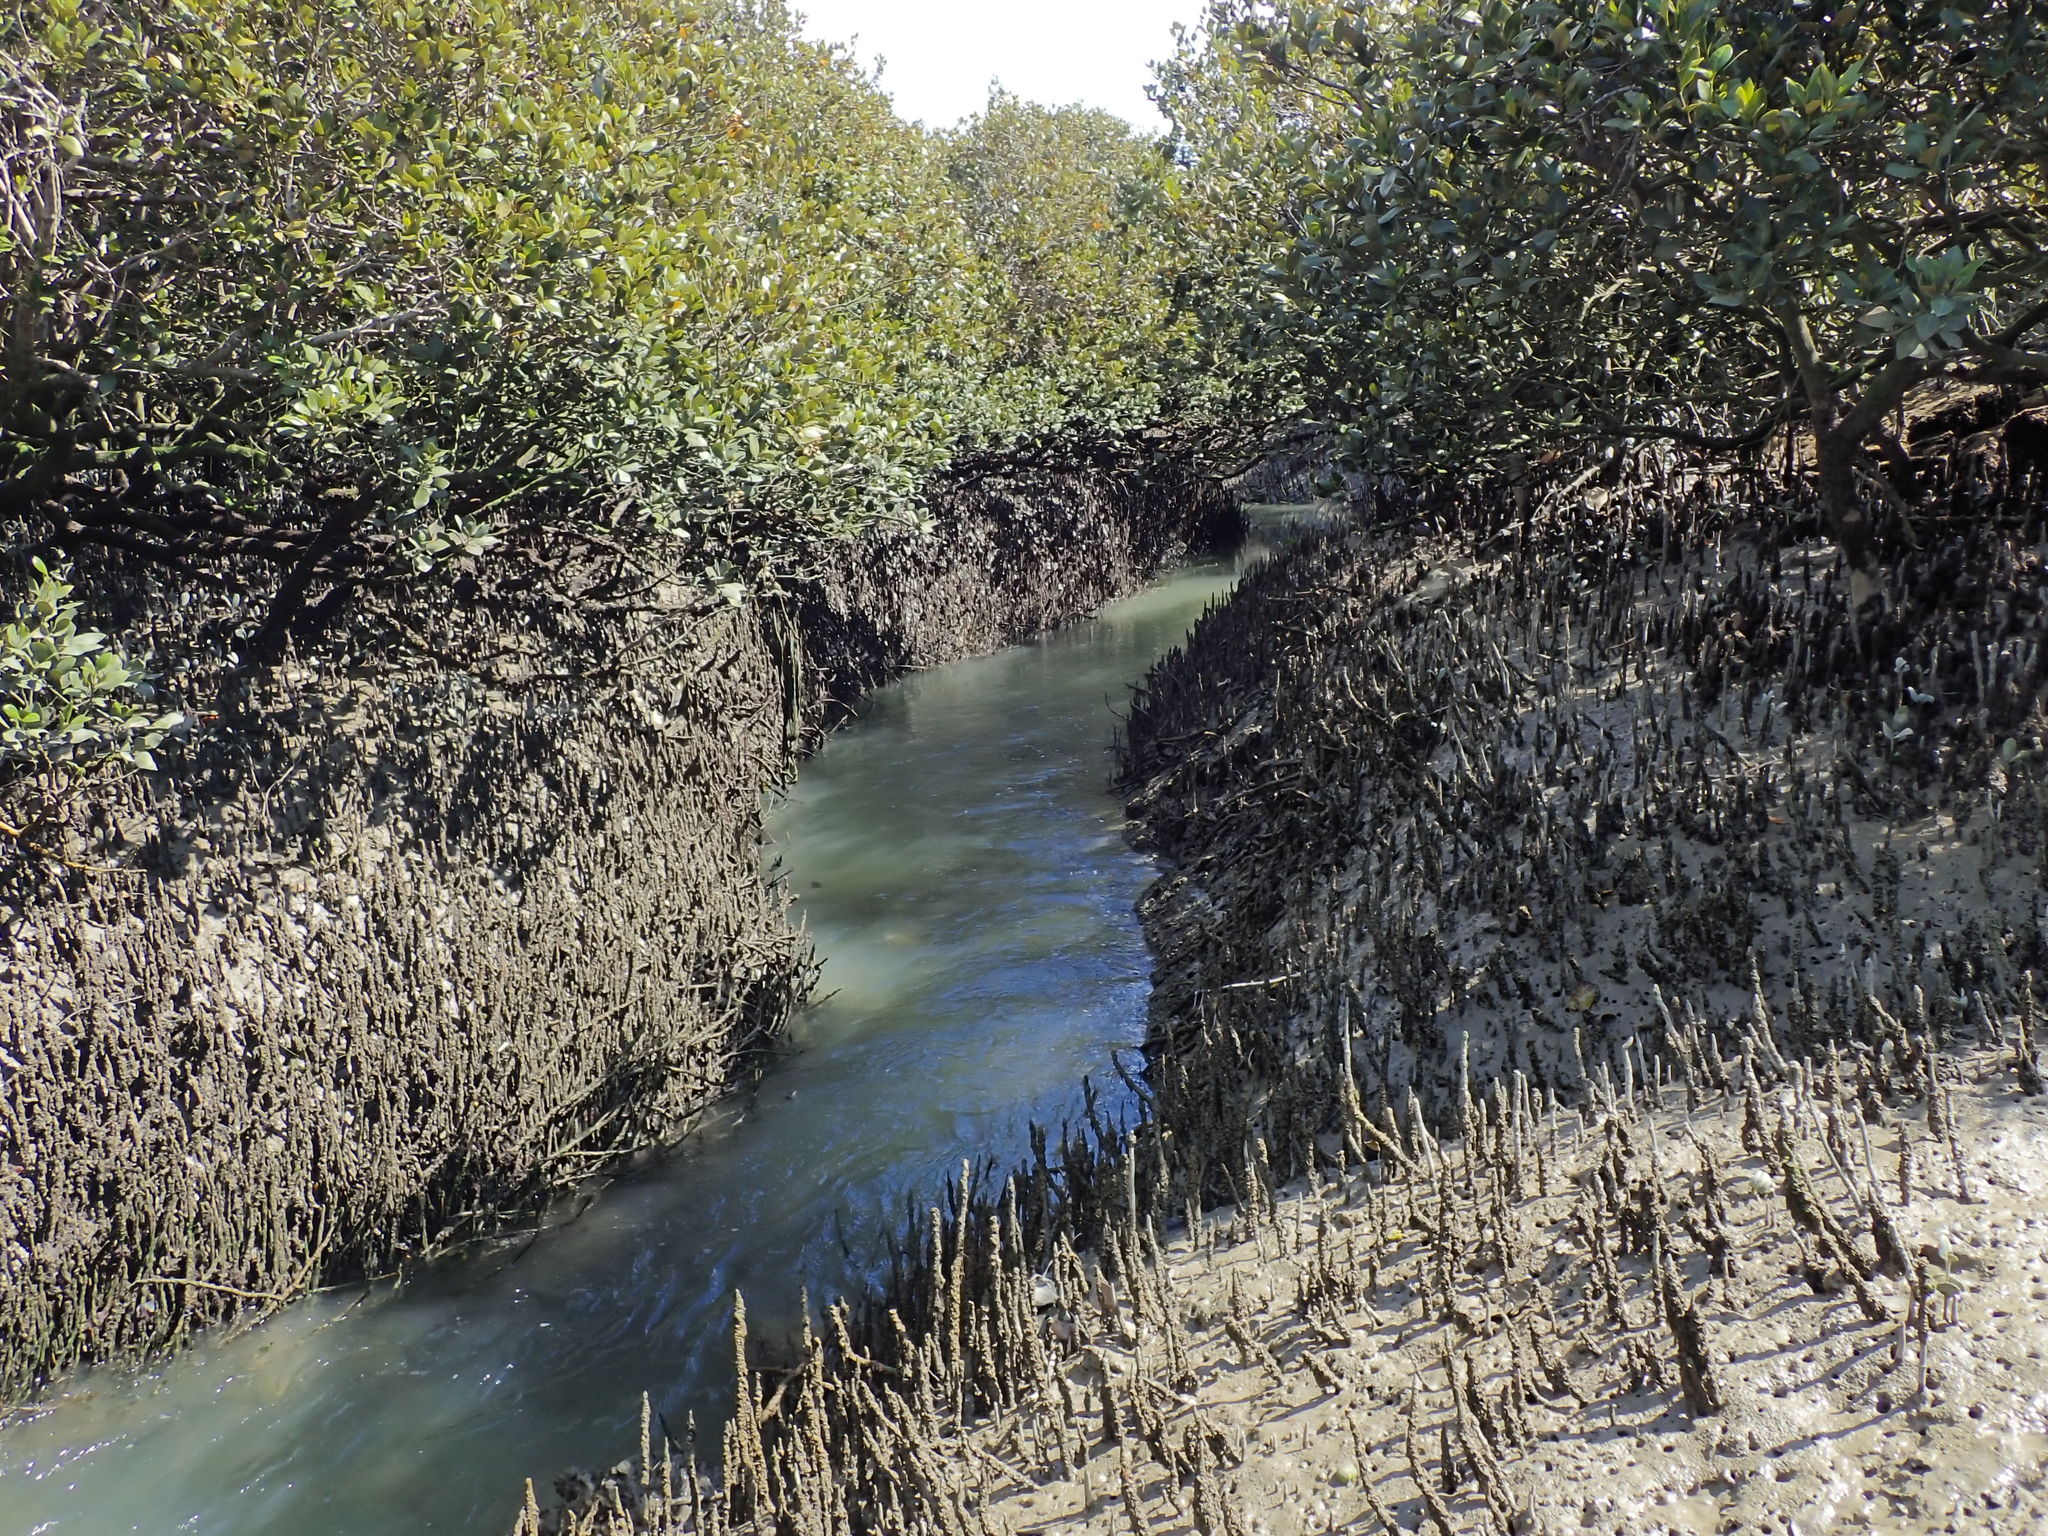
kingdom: Plantae
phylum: Tracheophyta
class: Magnoliopsida
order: Lamiales
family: Acanthaceae
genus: Avicennia
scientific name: Avicennia marina
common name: Gray mangrove
